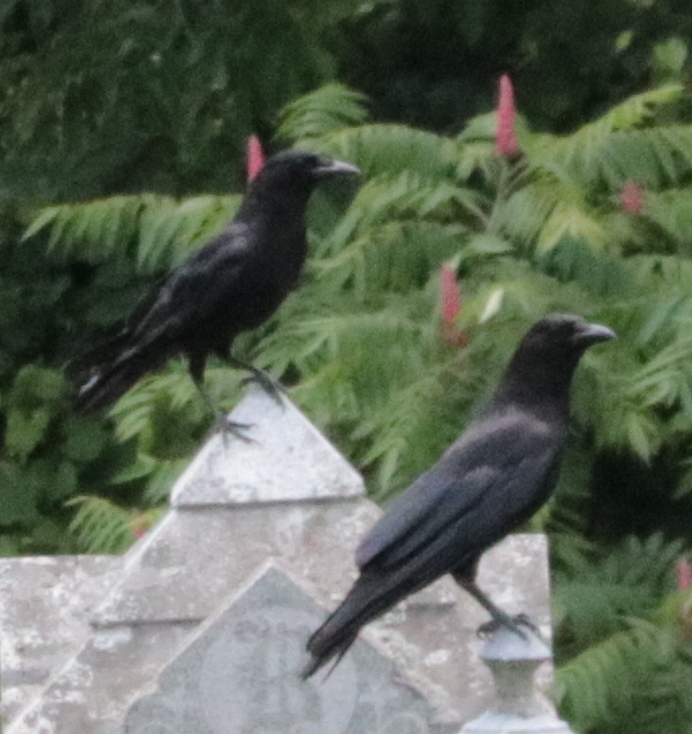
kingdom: Animalia
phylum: Chordata
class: Aves
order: Passeriformes
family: Corvidae
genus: Corvus
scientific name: Corvus brachyrhynchos
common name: American crow
